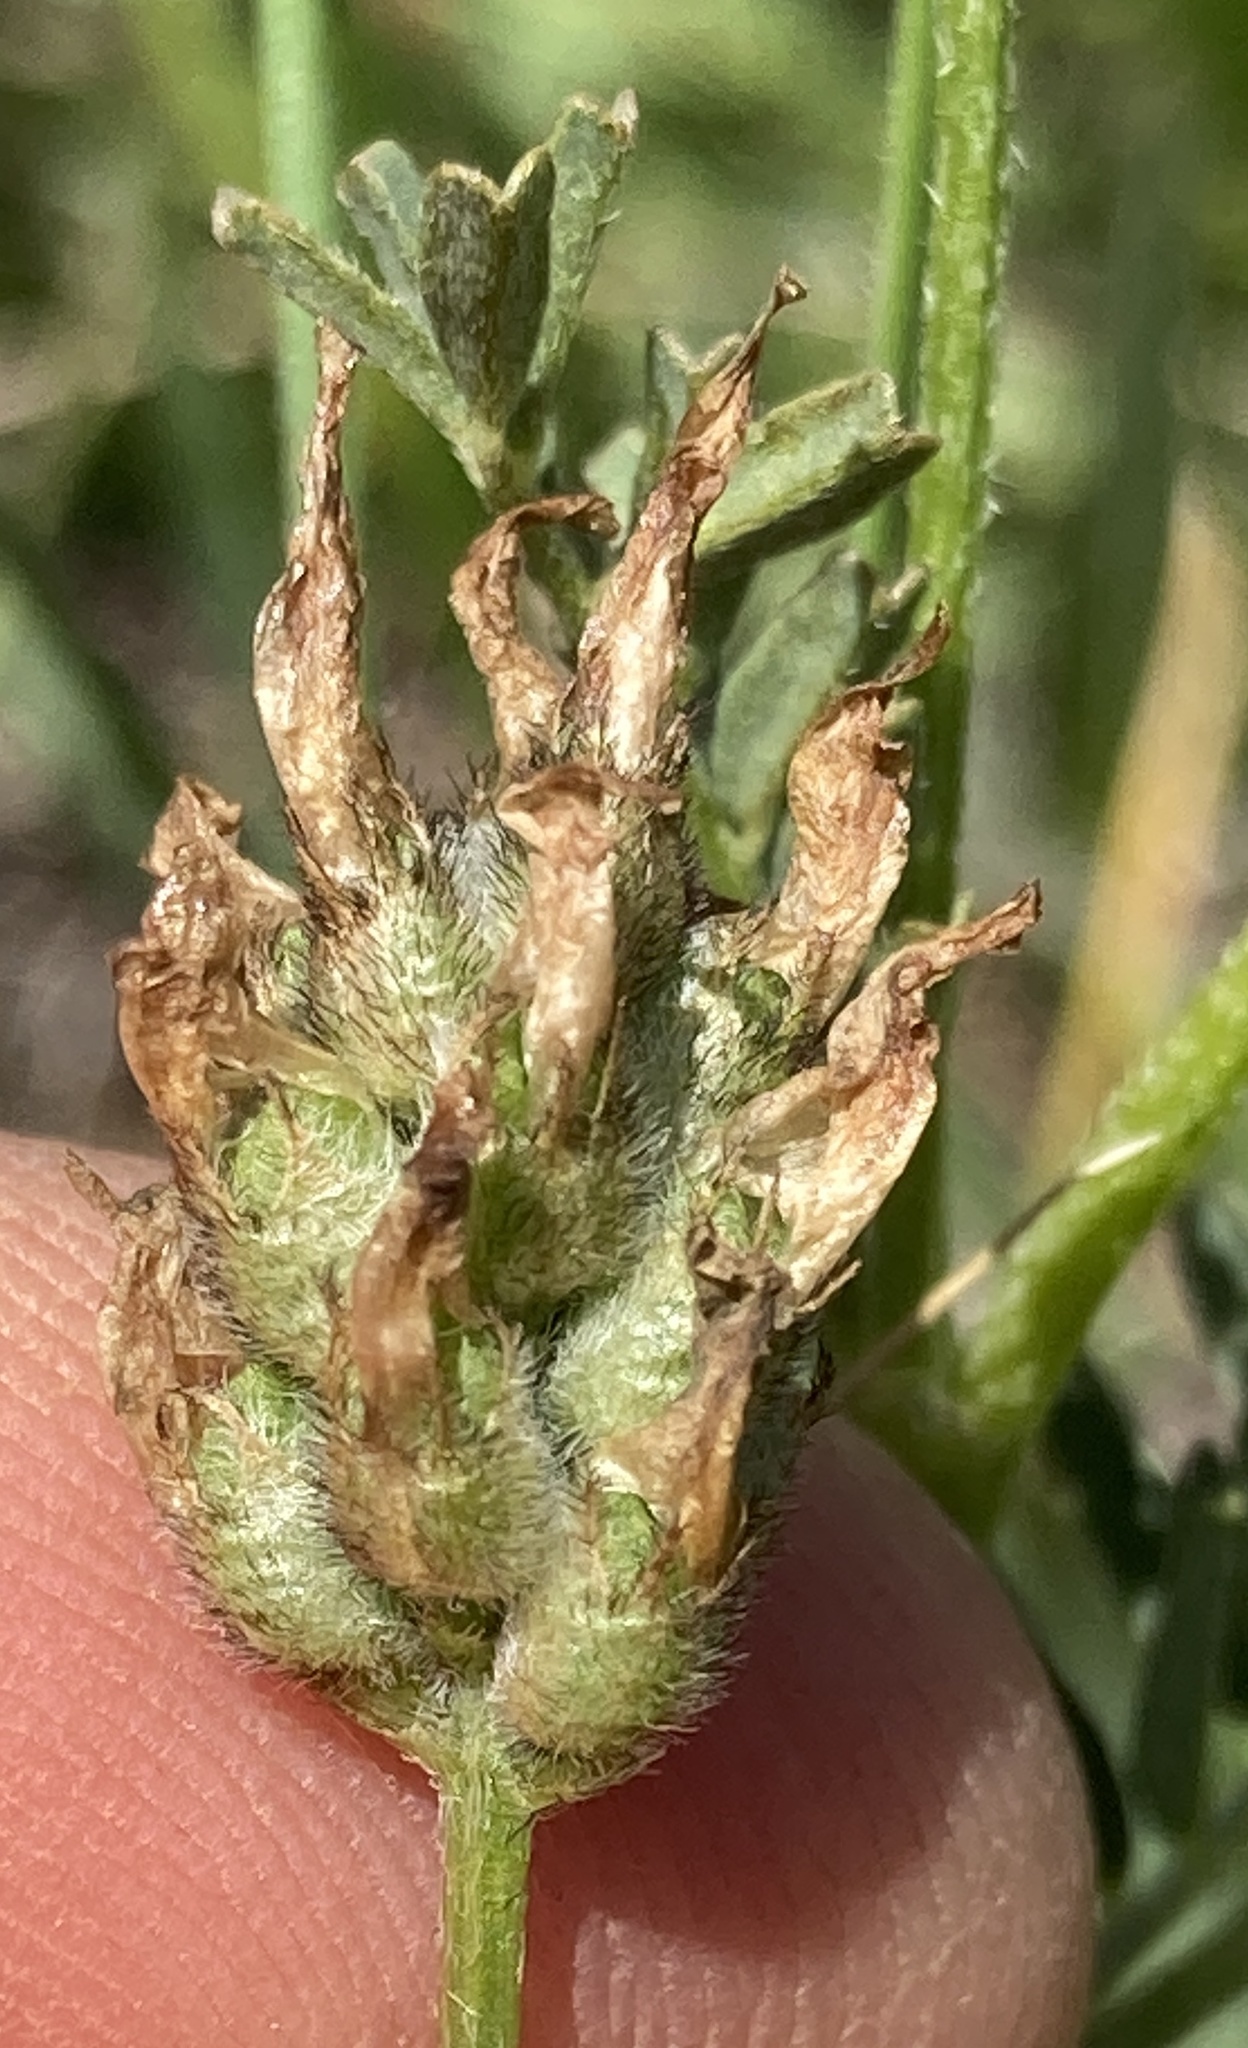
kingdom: Plantae
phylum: Tracheophyta
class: Magnoliopsida
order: Fabales
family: Fabaceae
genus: Astragalus
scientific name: Astragalus didymocarpus
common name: Dwarf white milkvetch
